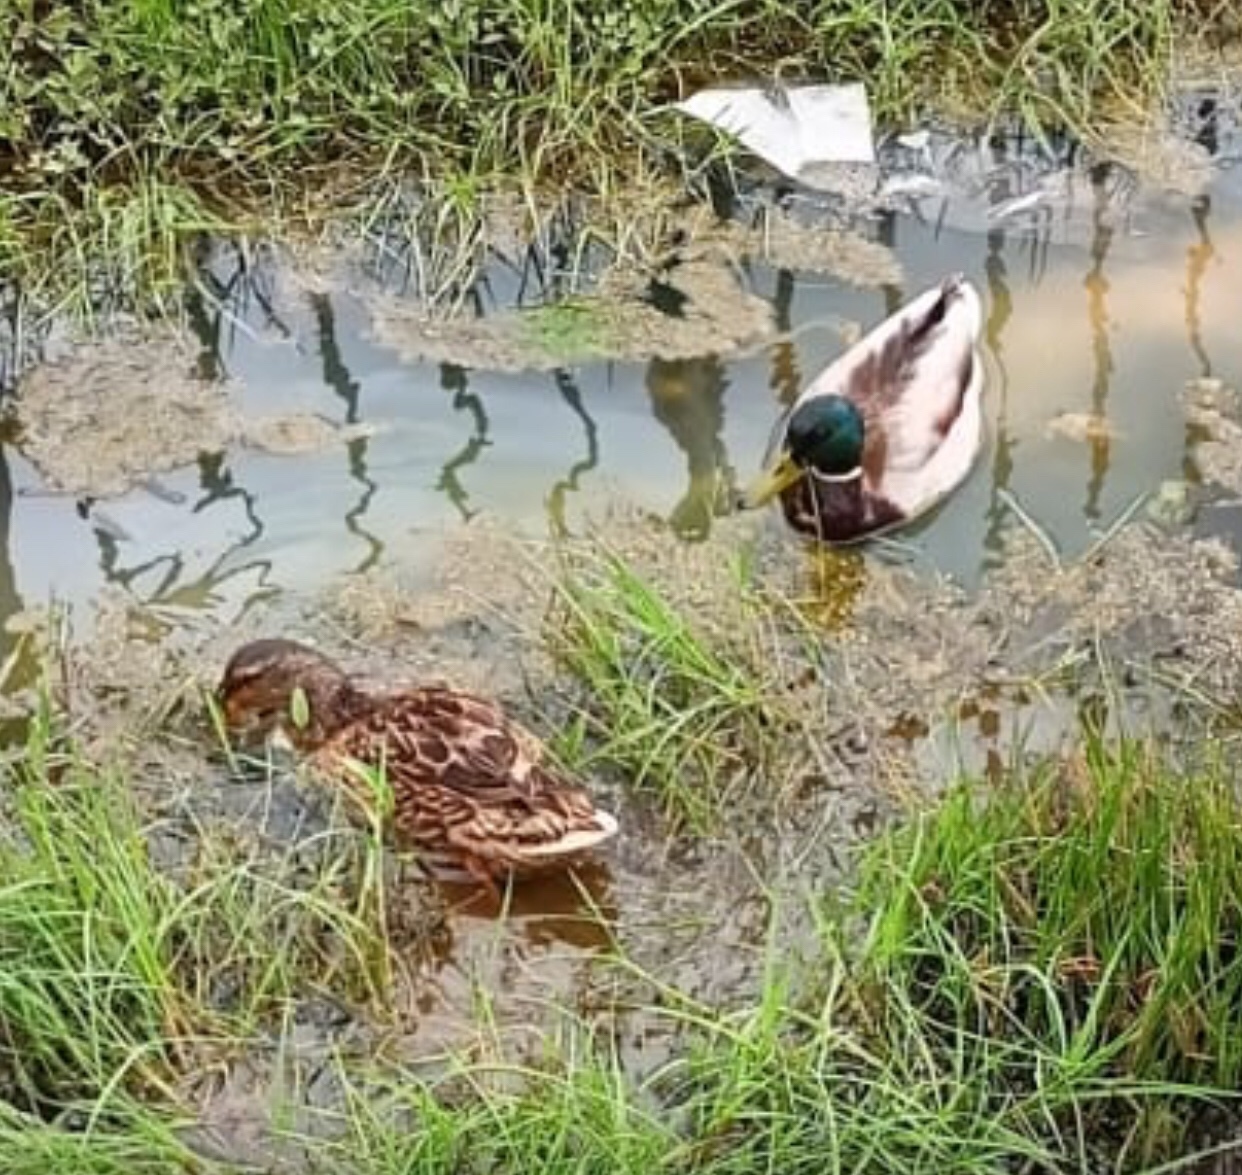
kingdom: Animalia
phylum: Chordata
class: Aves
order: Anseriformes
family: Anatidae
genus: Anas
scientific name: Anas platyrhynchos
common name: Mallard
